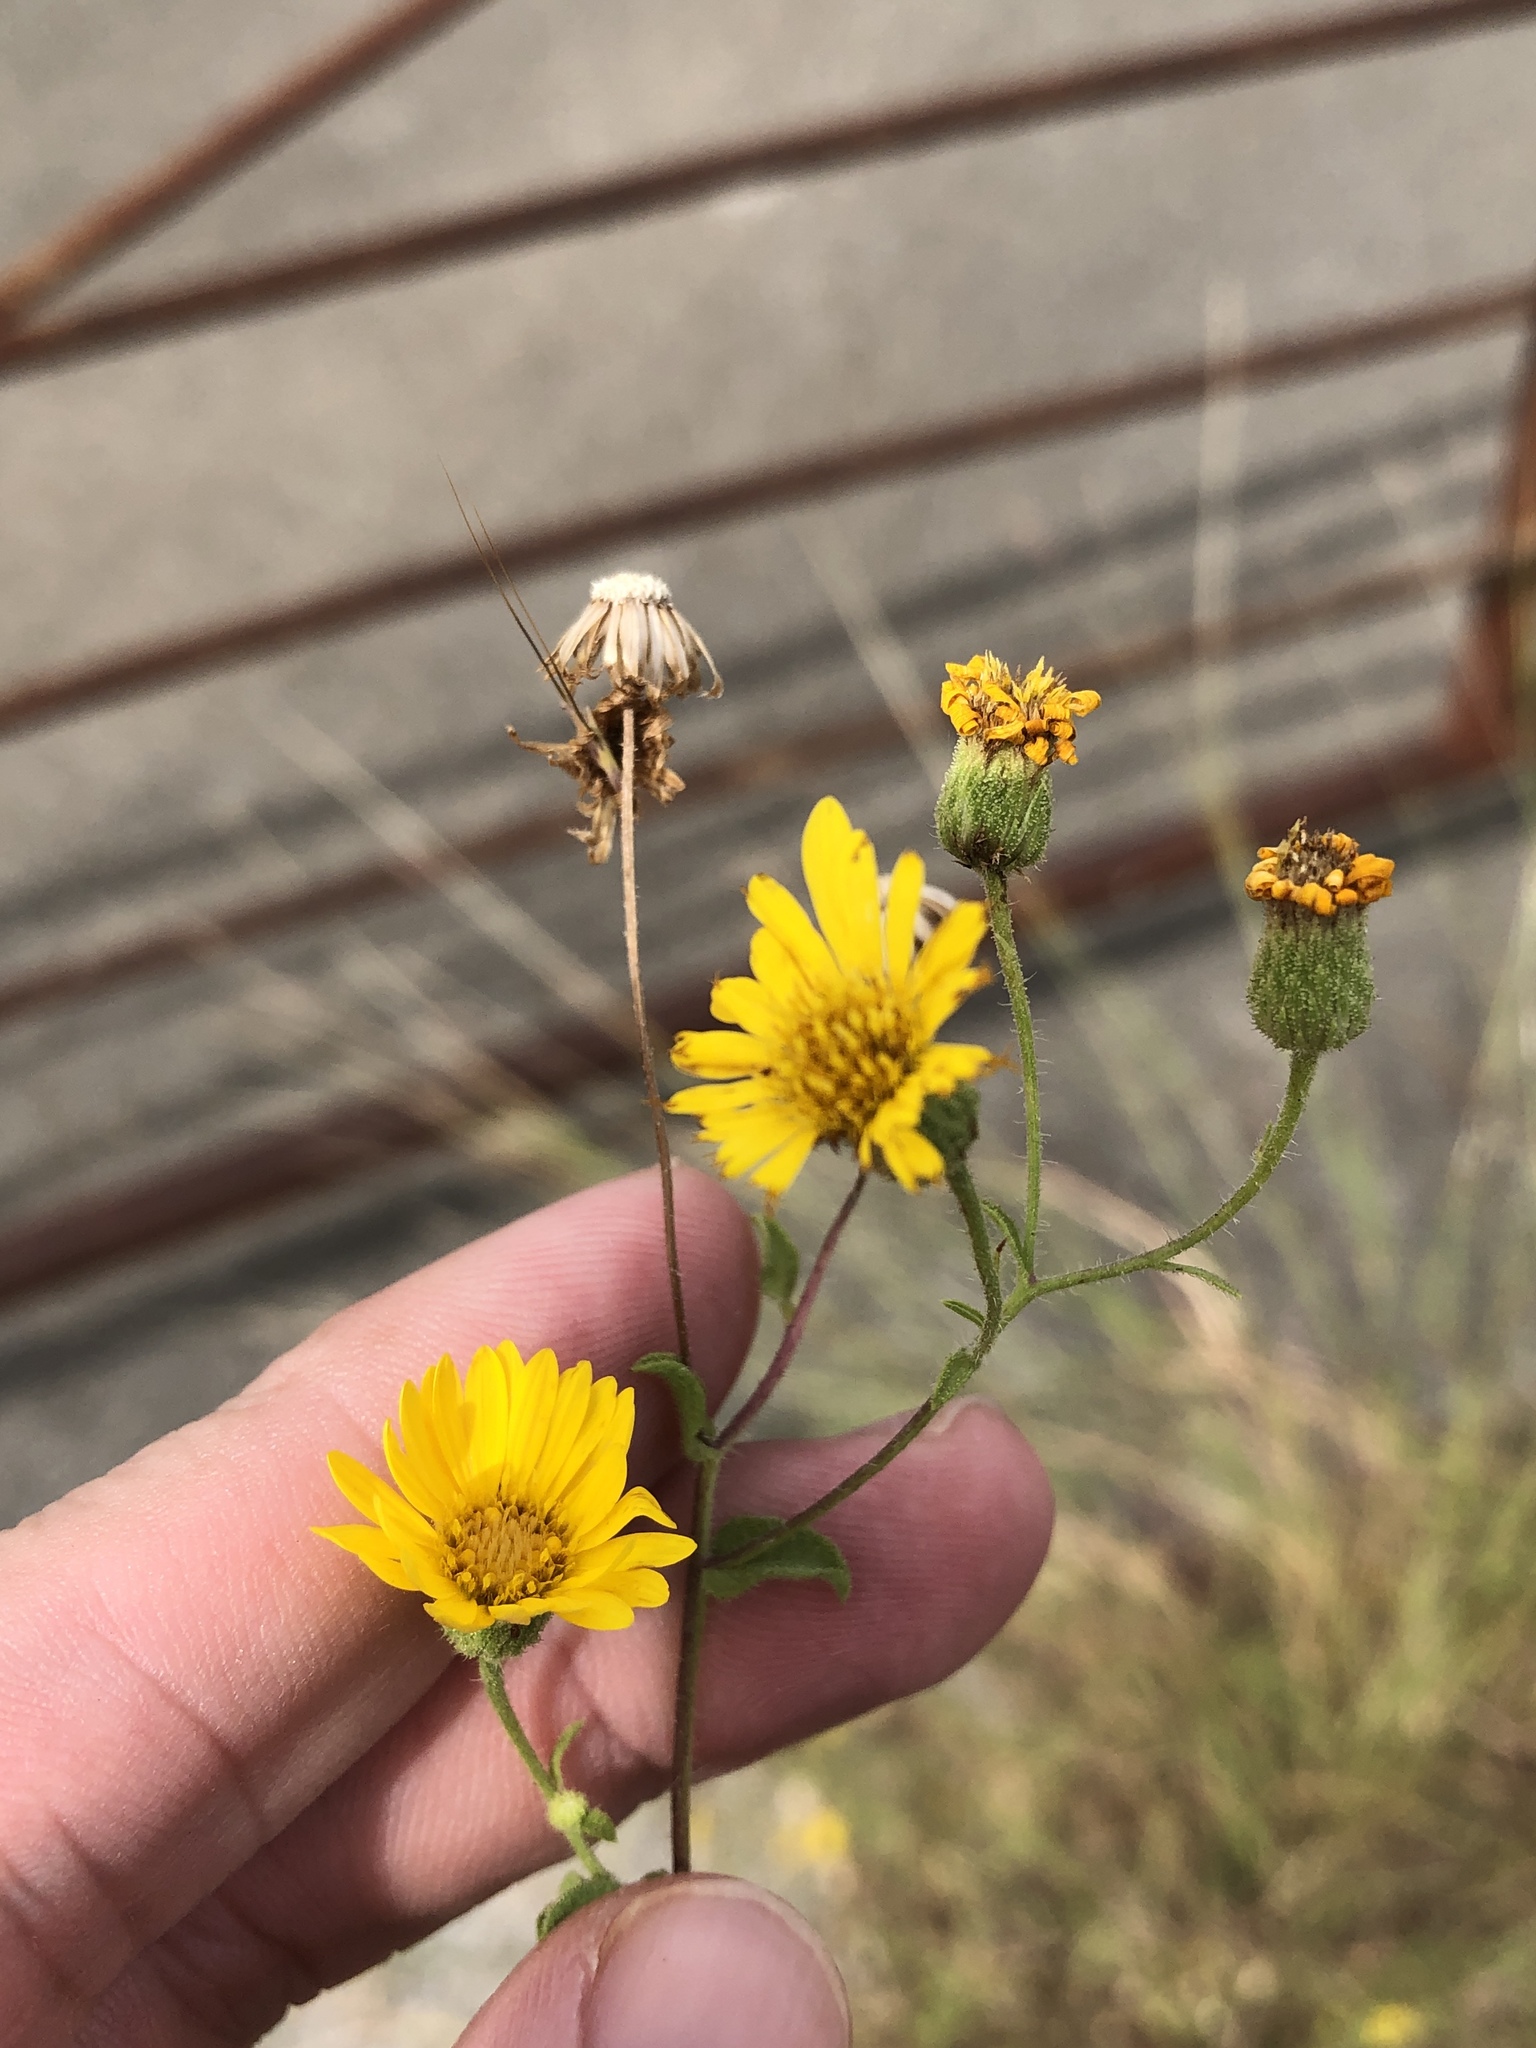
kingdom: Plantae
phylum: Tracheophyta
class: Magnoliopsida
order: Asterales
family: Asteraceae
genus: Heterotheca
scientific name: Heterotheca subaxillaris
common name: Camphorweed
